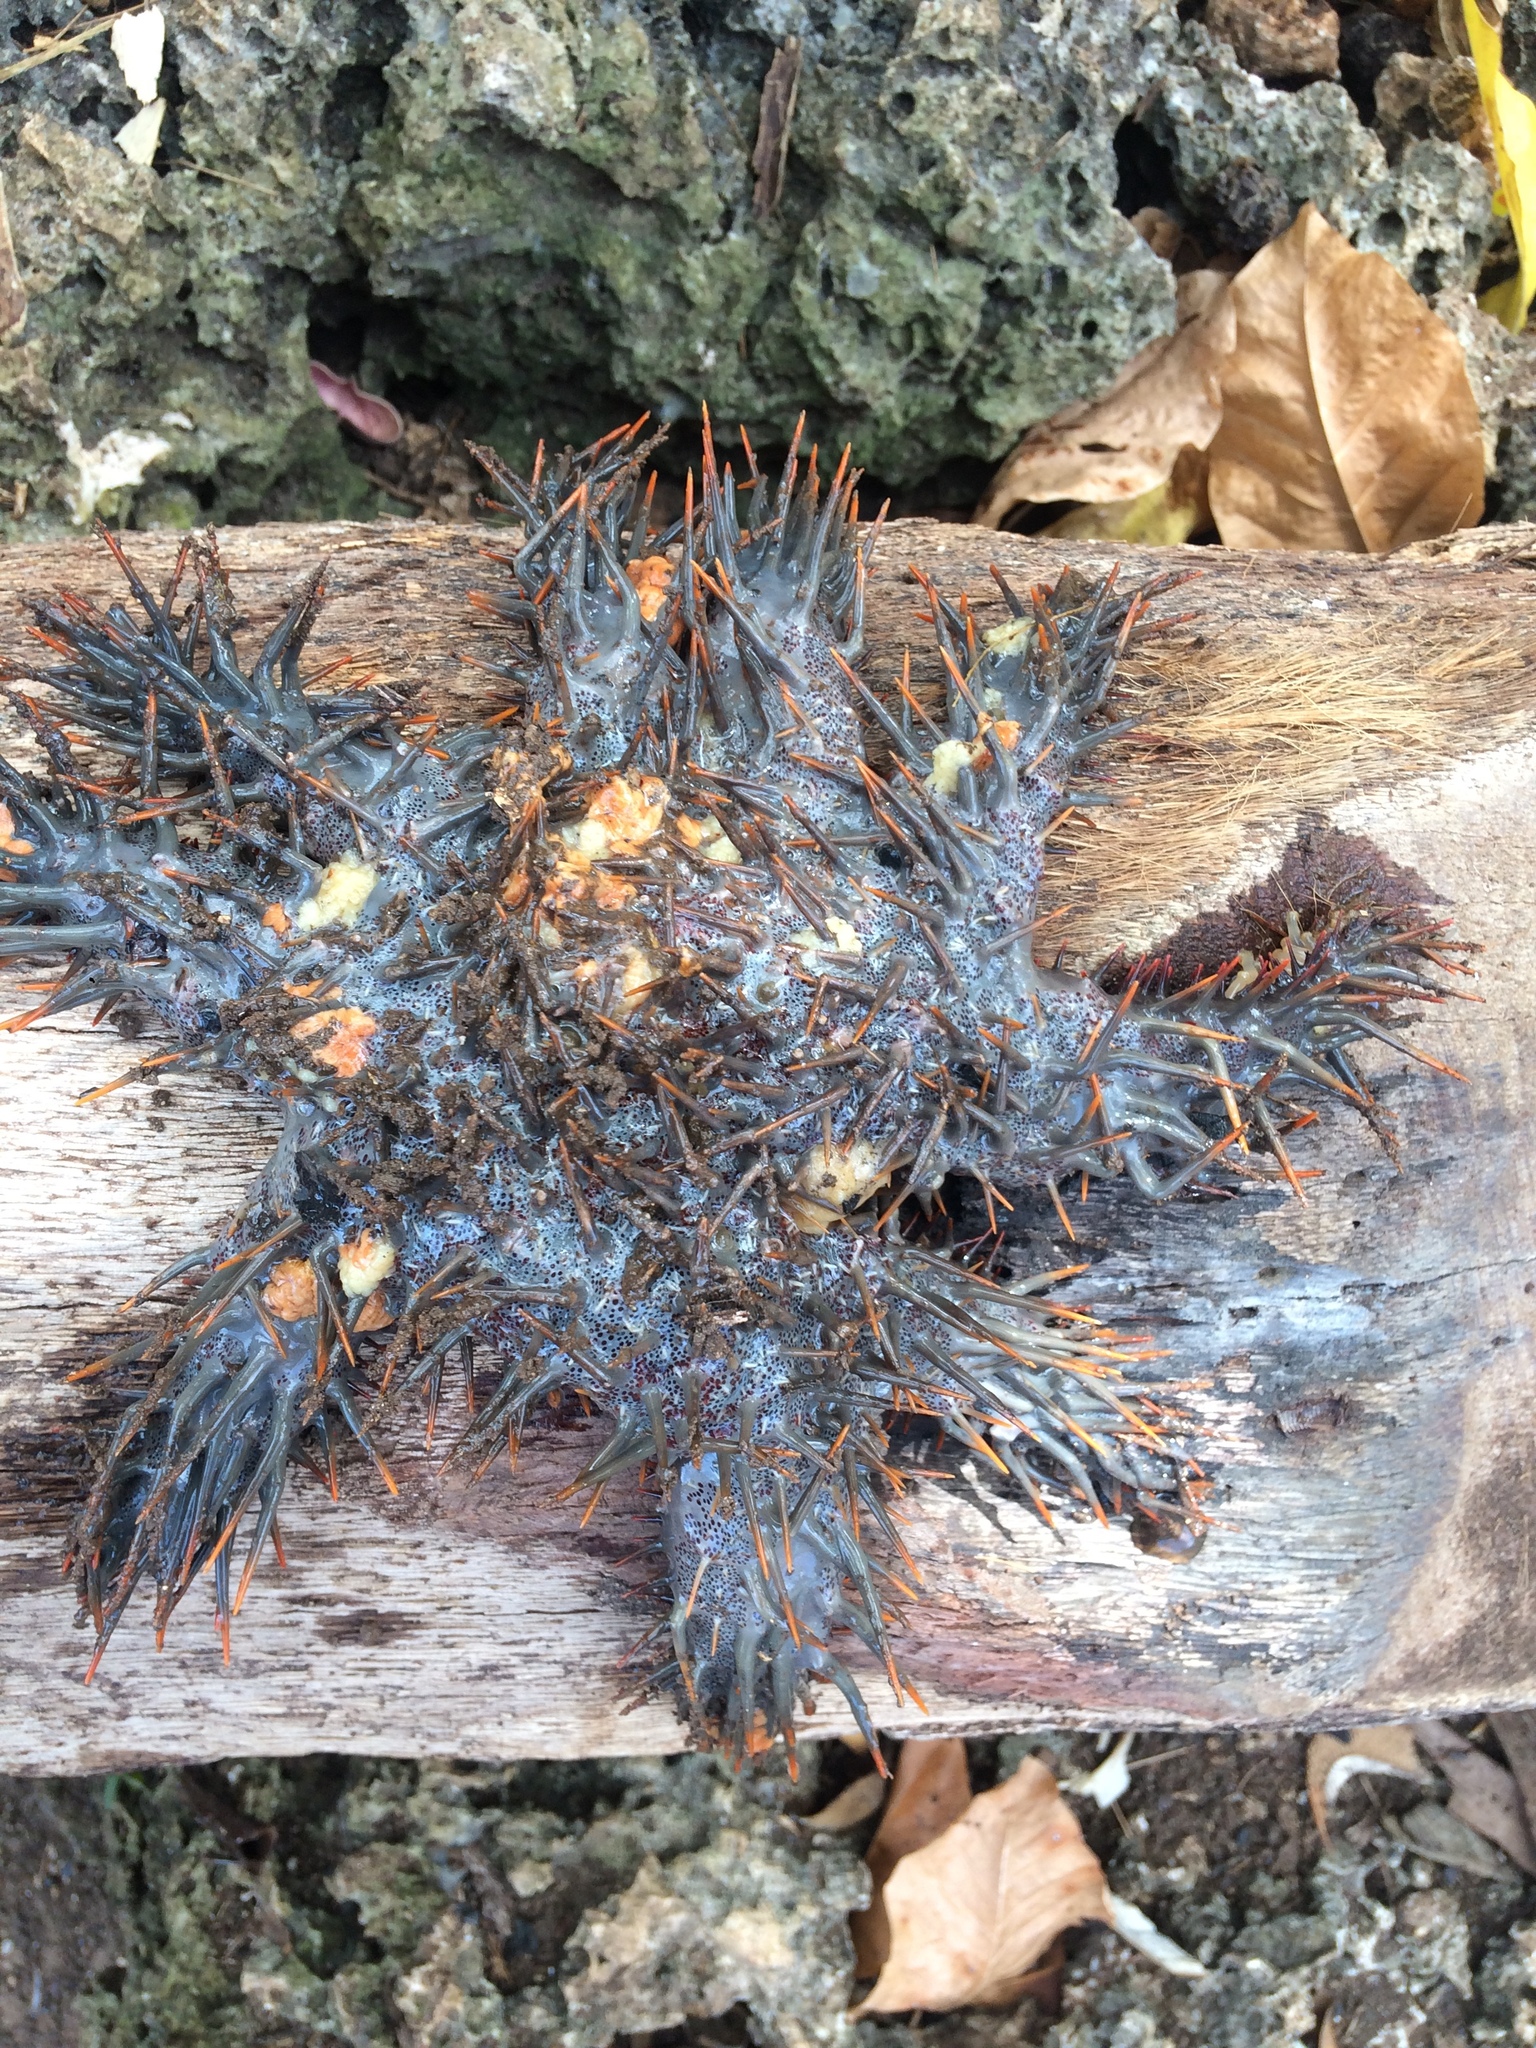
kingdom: Animalia
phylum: Echinodermata
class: Asteroidea
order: Valvatida
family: Acanthasteridae
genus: Acanthaster
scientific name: Acanthaster planci
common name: Crown-of-thorns
